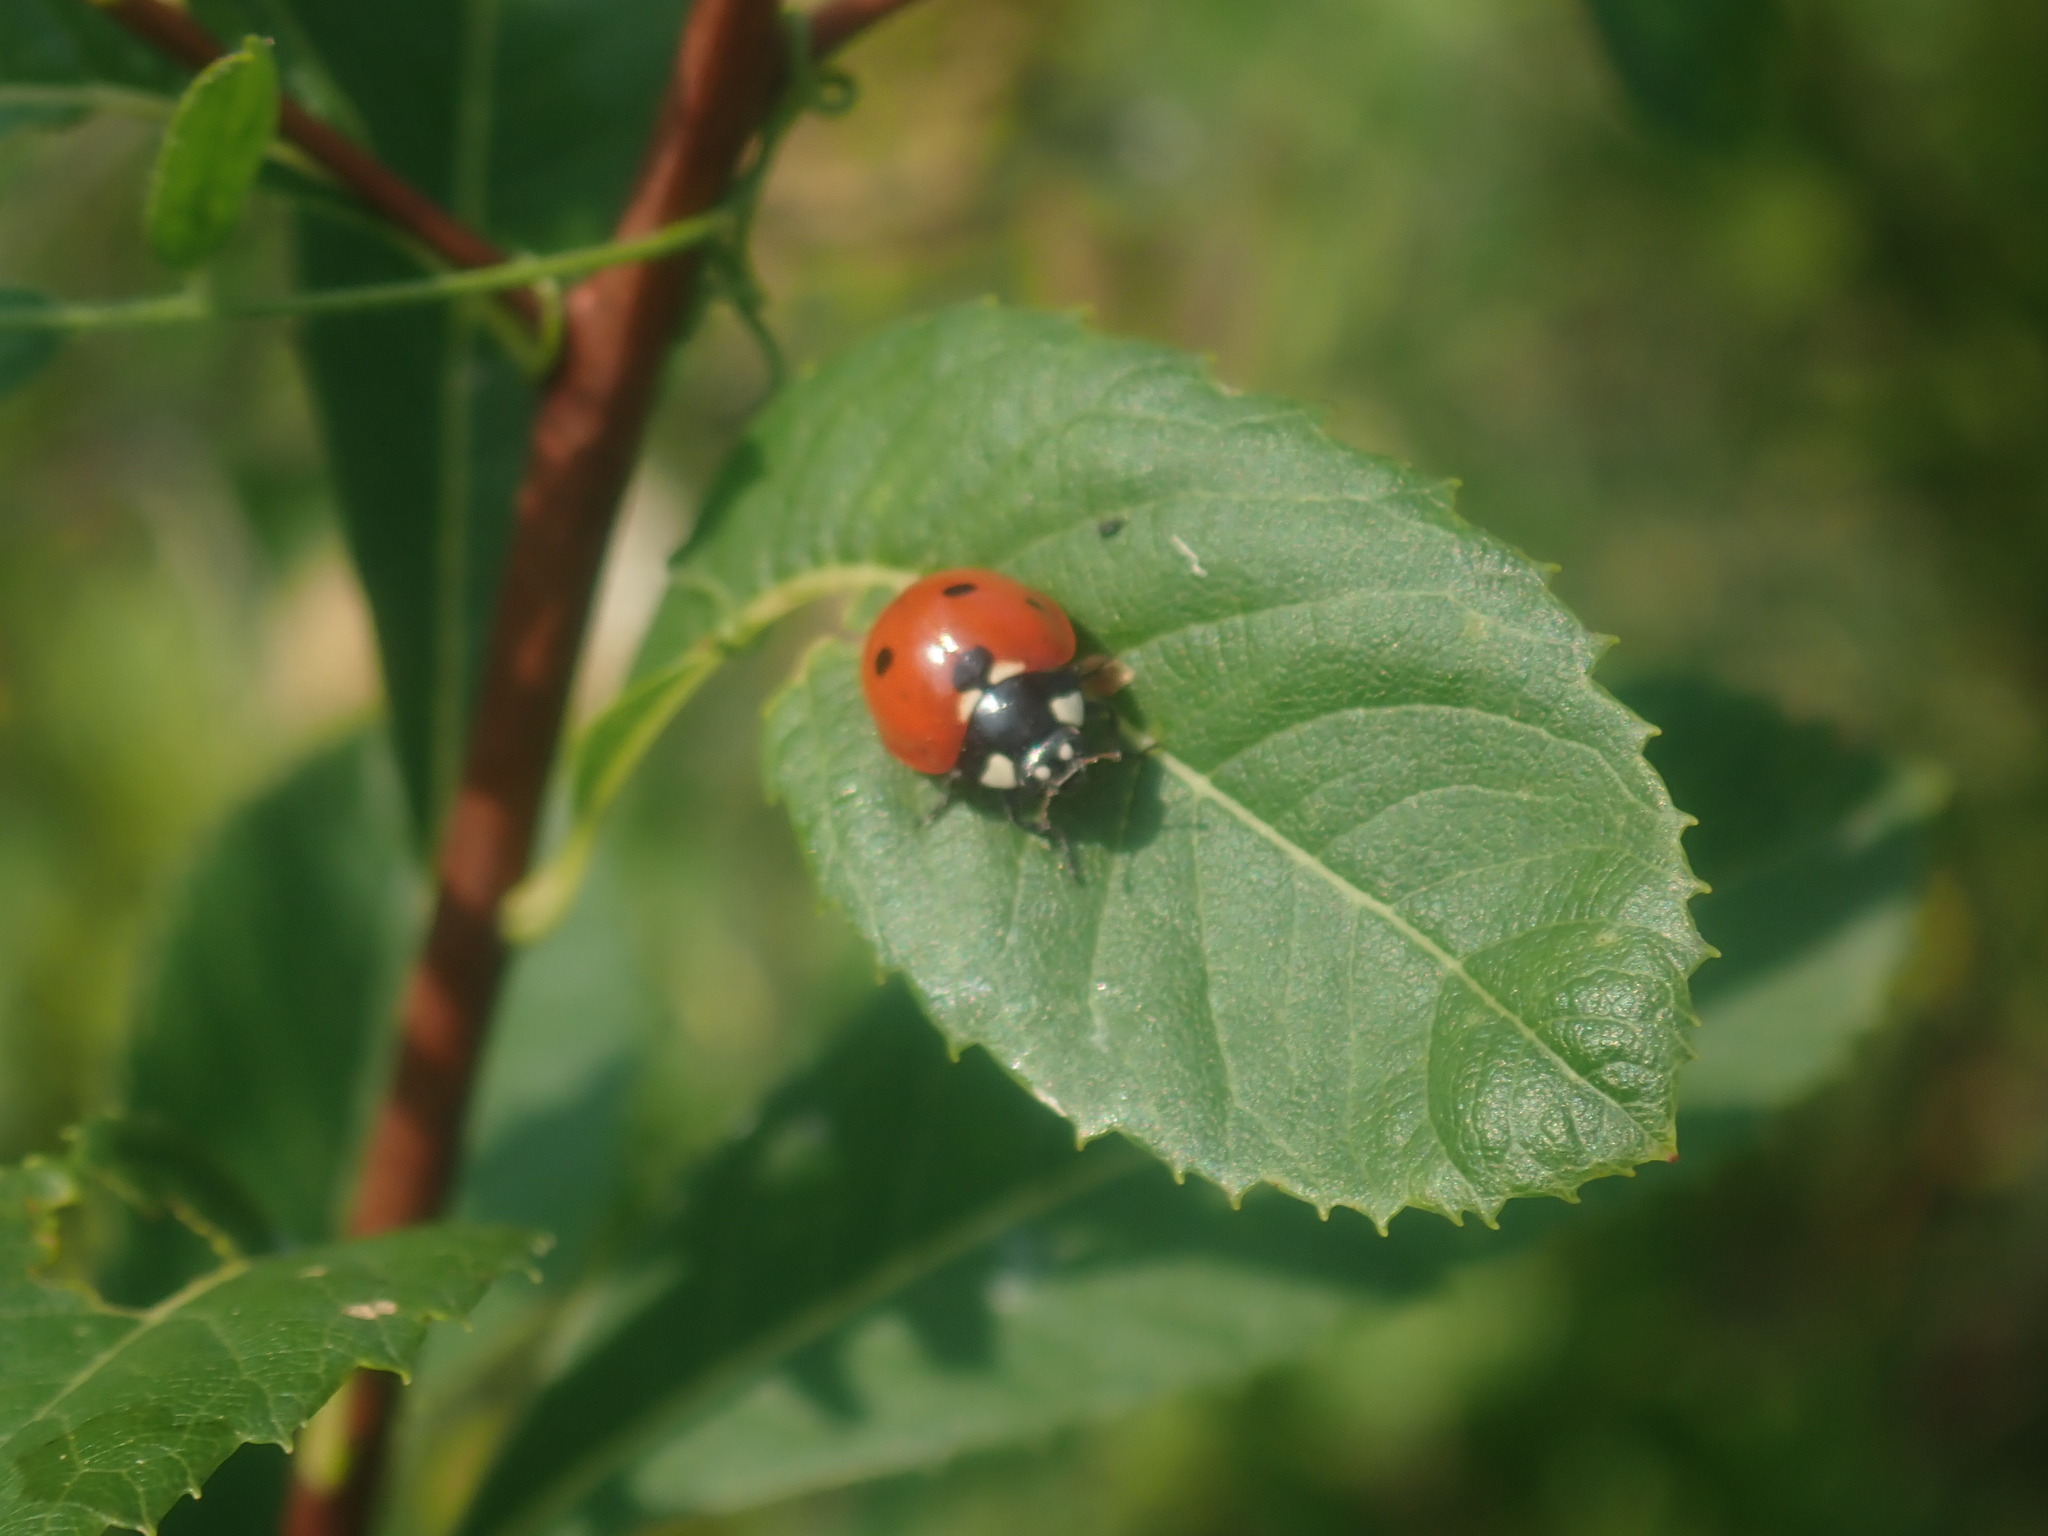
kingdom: Animalia
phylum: Arthropoda
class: Insecta
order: Coleoptera
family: Coccinellidae
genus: Coccinella
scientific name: Coccinella septempunctata
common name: Sevenspotted lady beetle
